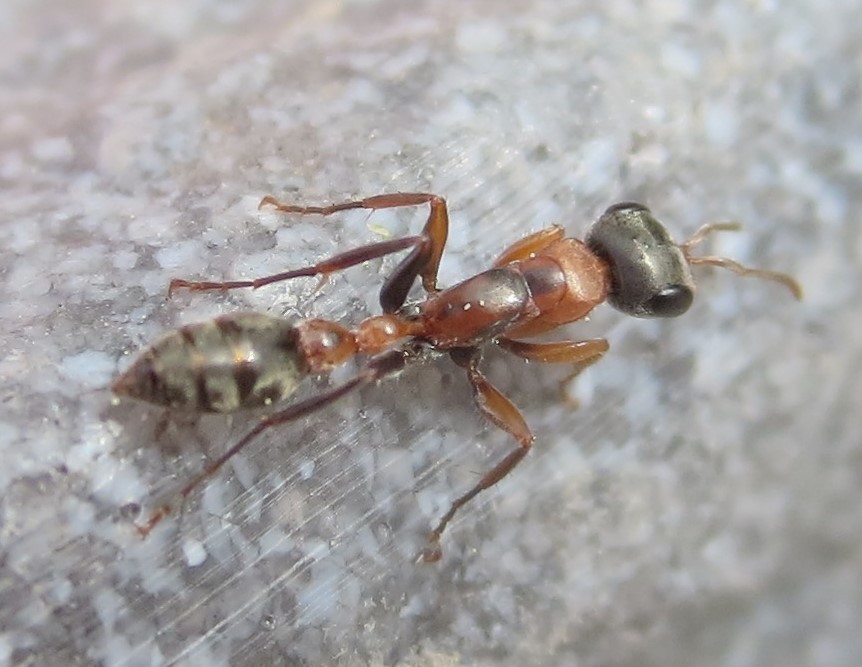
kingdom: Animalia
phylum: Arthropoda
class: Insecta
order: Hymenoptera
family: Formicidae
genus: Pseudomyrmex
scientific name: Pseudomyrmex gracilis
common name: Graceful twig ant
